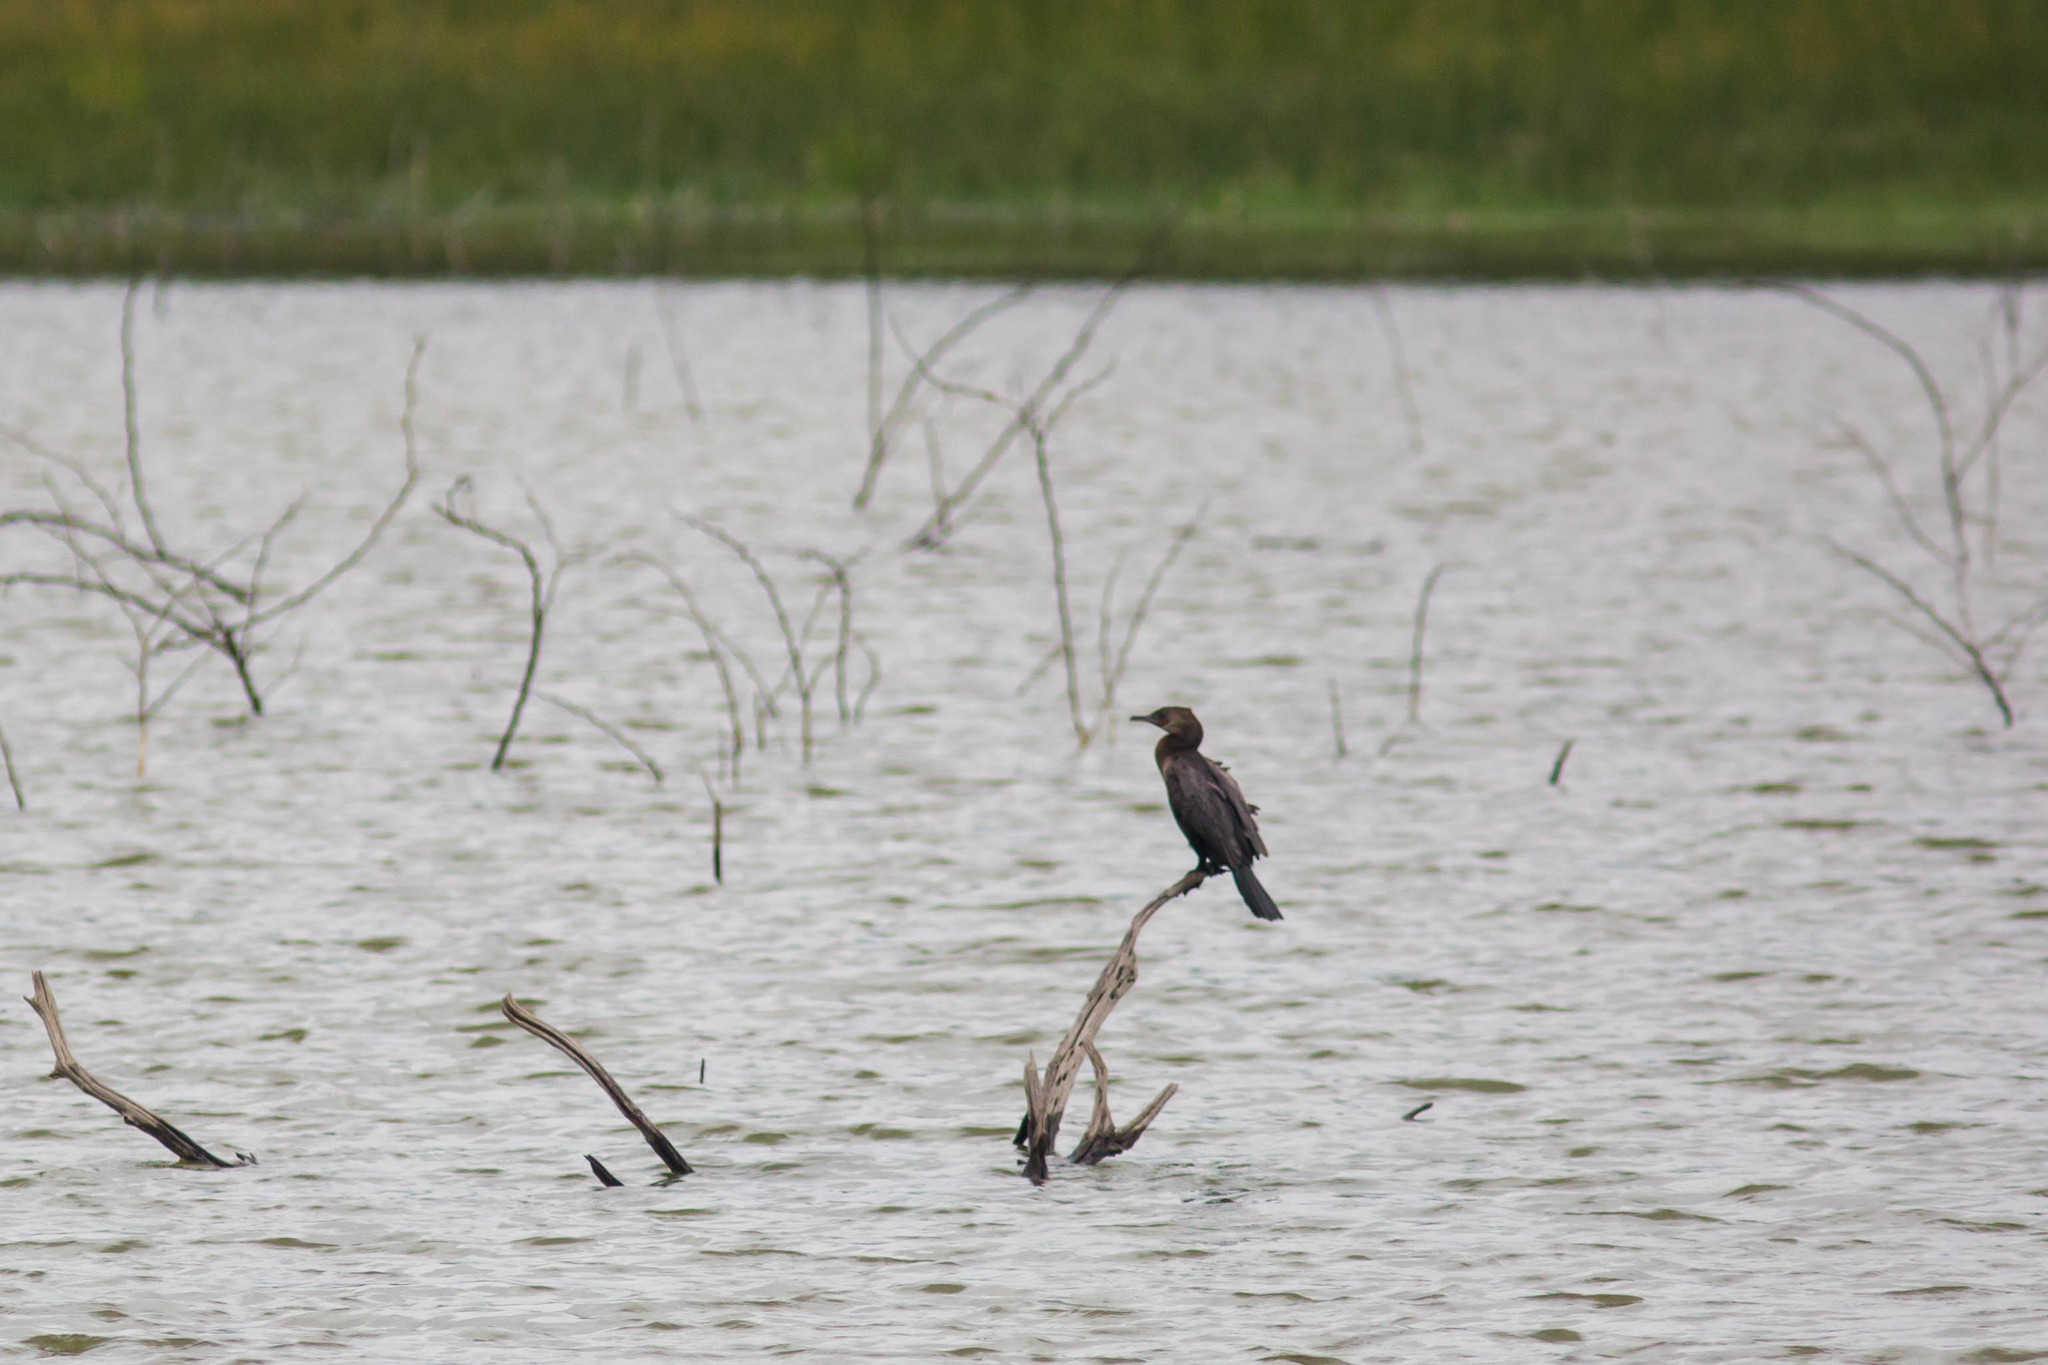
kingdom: Animalia
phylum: Chordata
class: Aves
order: Suliformes
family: Phalacrocoracidae
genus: Phalacrocorax
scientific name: Phalacrocorax brasilianus
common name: Neotropic cormorant
